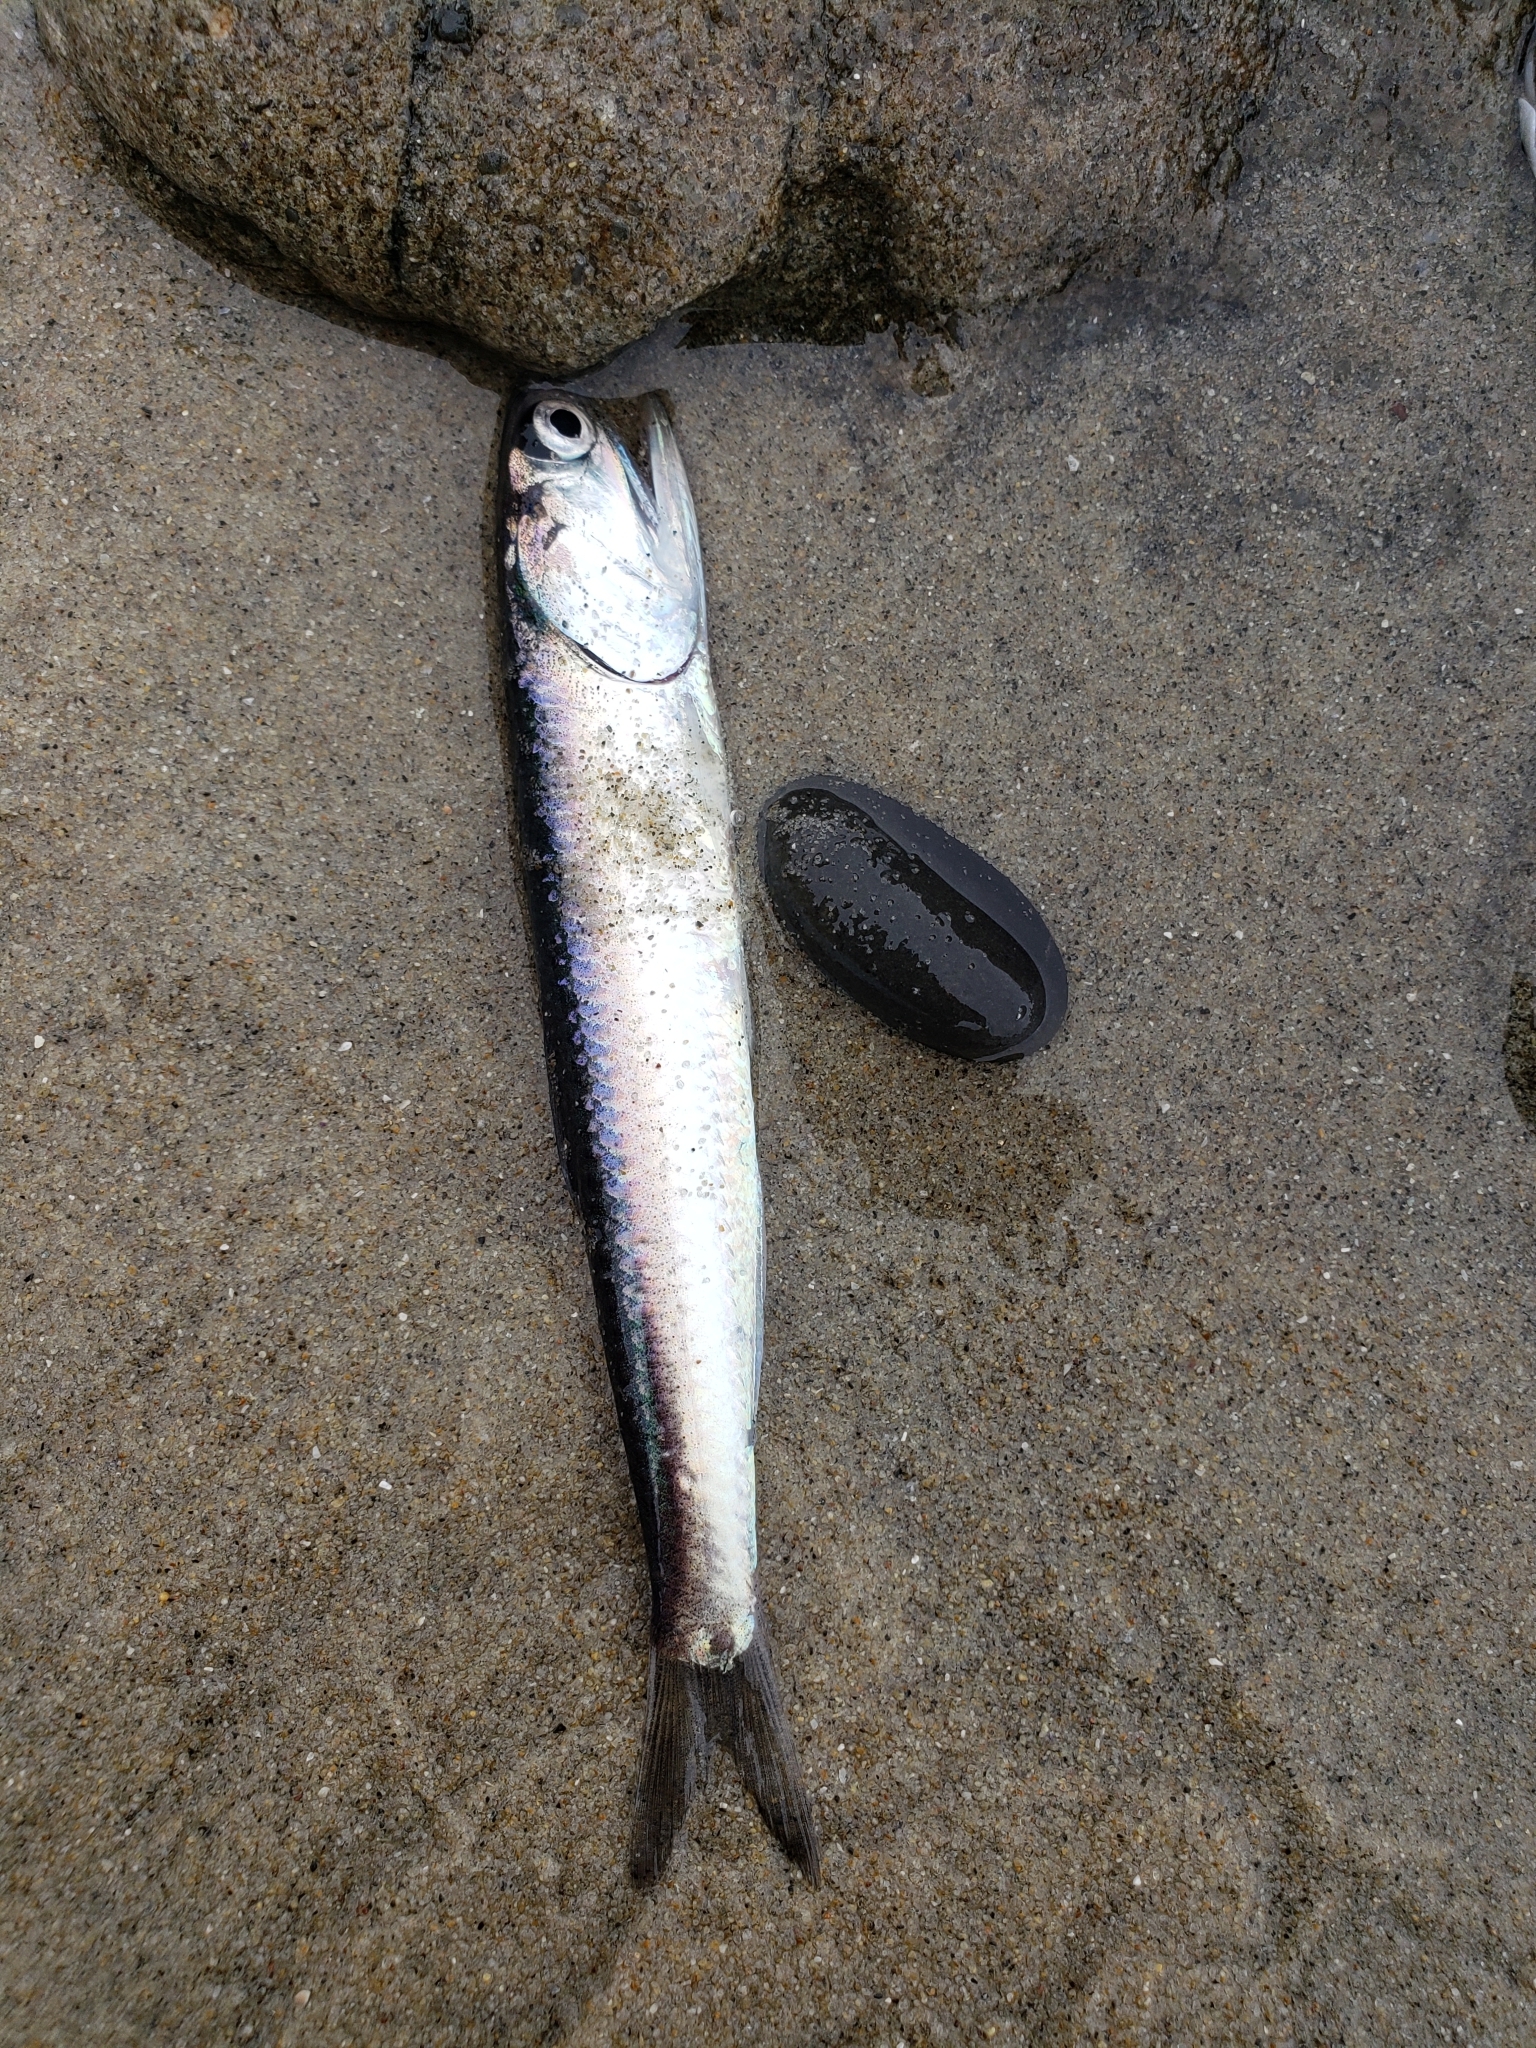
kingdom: Animalia
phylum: Chordata
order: Clupeiformes
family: Engraulidae
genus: Engraulis
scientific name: Engraulis mordax
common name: Northern anchovy
